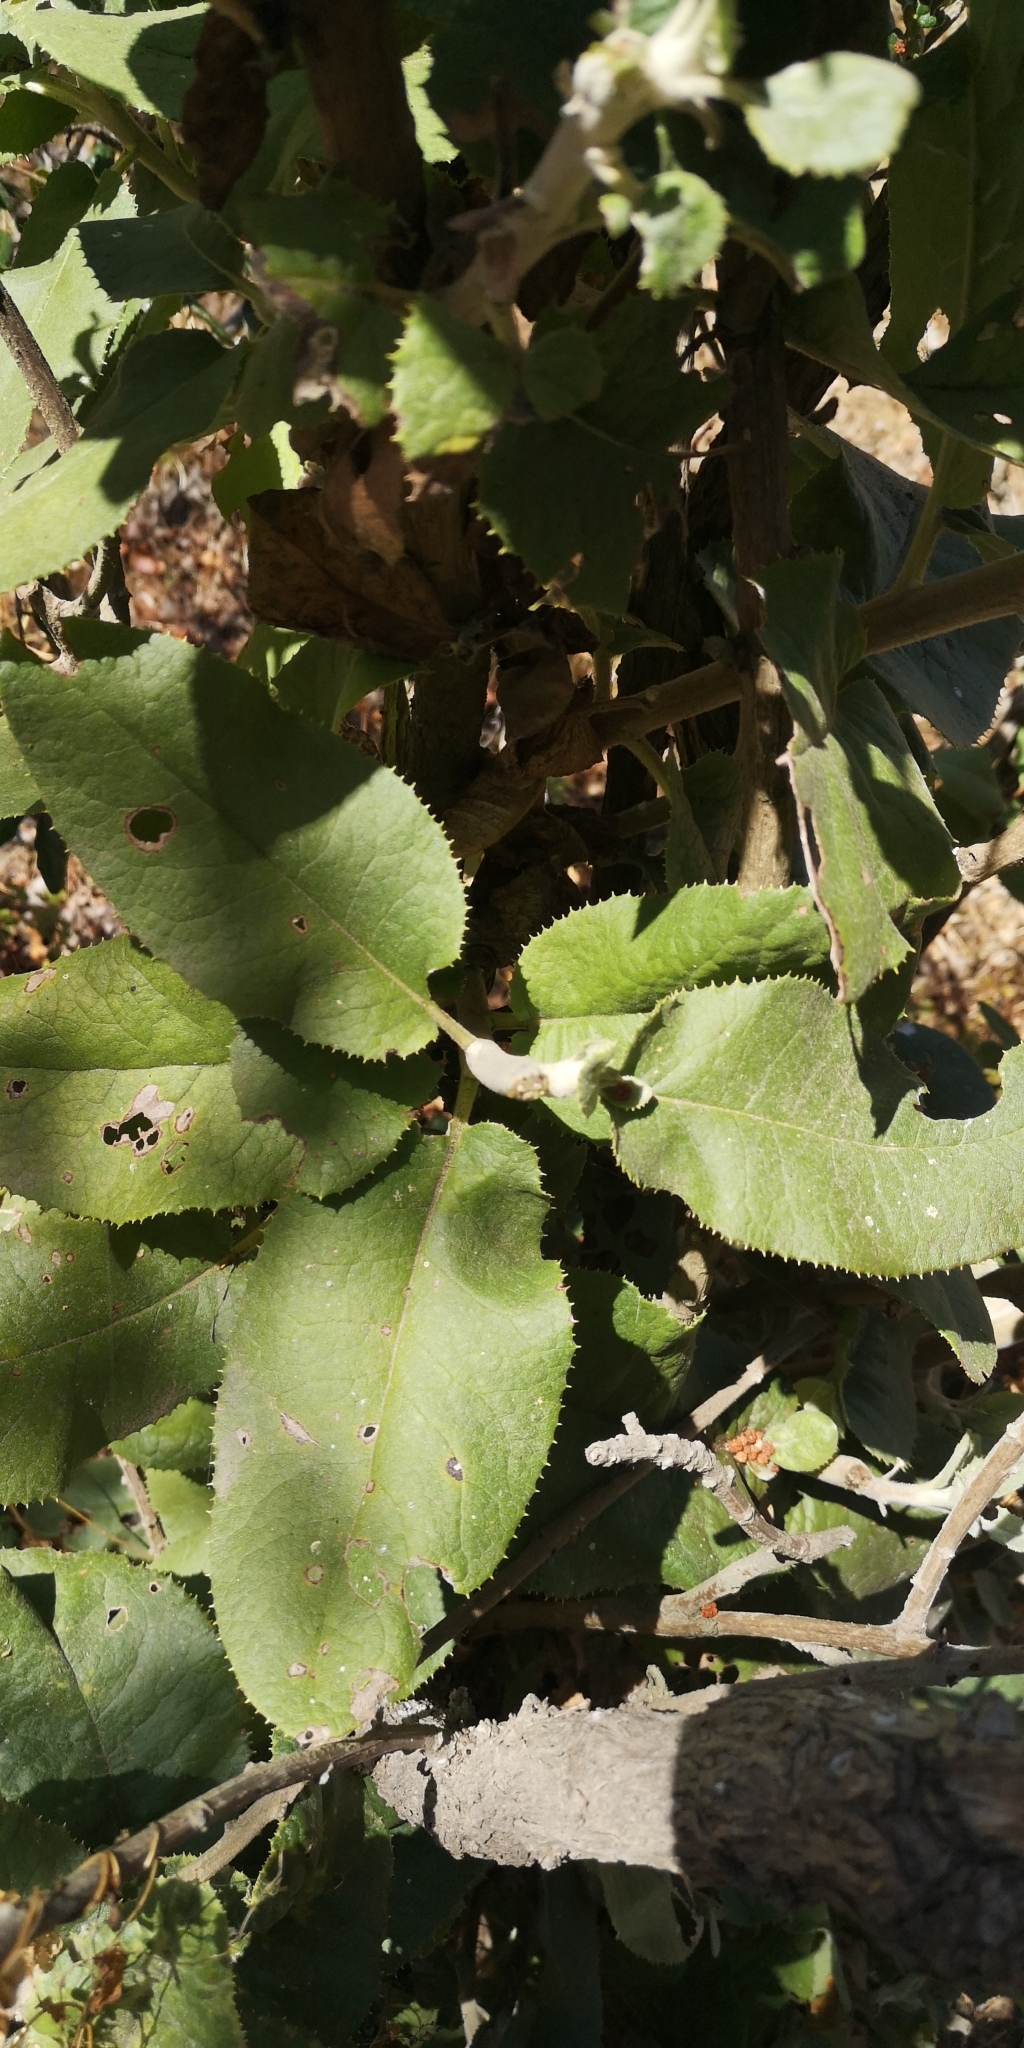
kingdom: Plantae
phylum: Tracheophyta
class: Magnoliopsida
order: Asterales
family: Asteraceae
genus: Acrisione
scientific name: Acrisione denticulata
